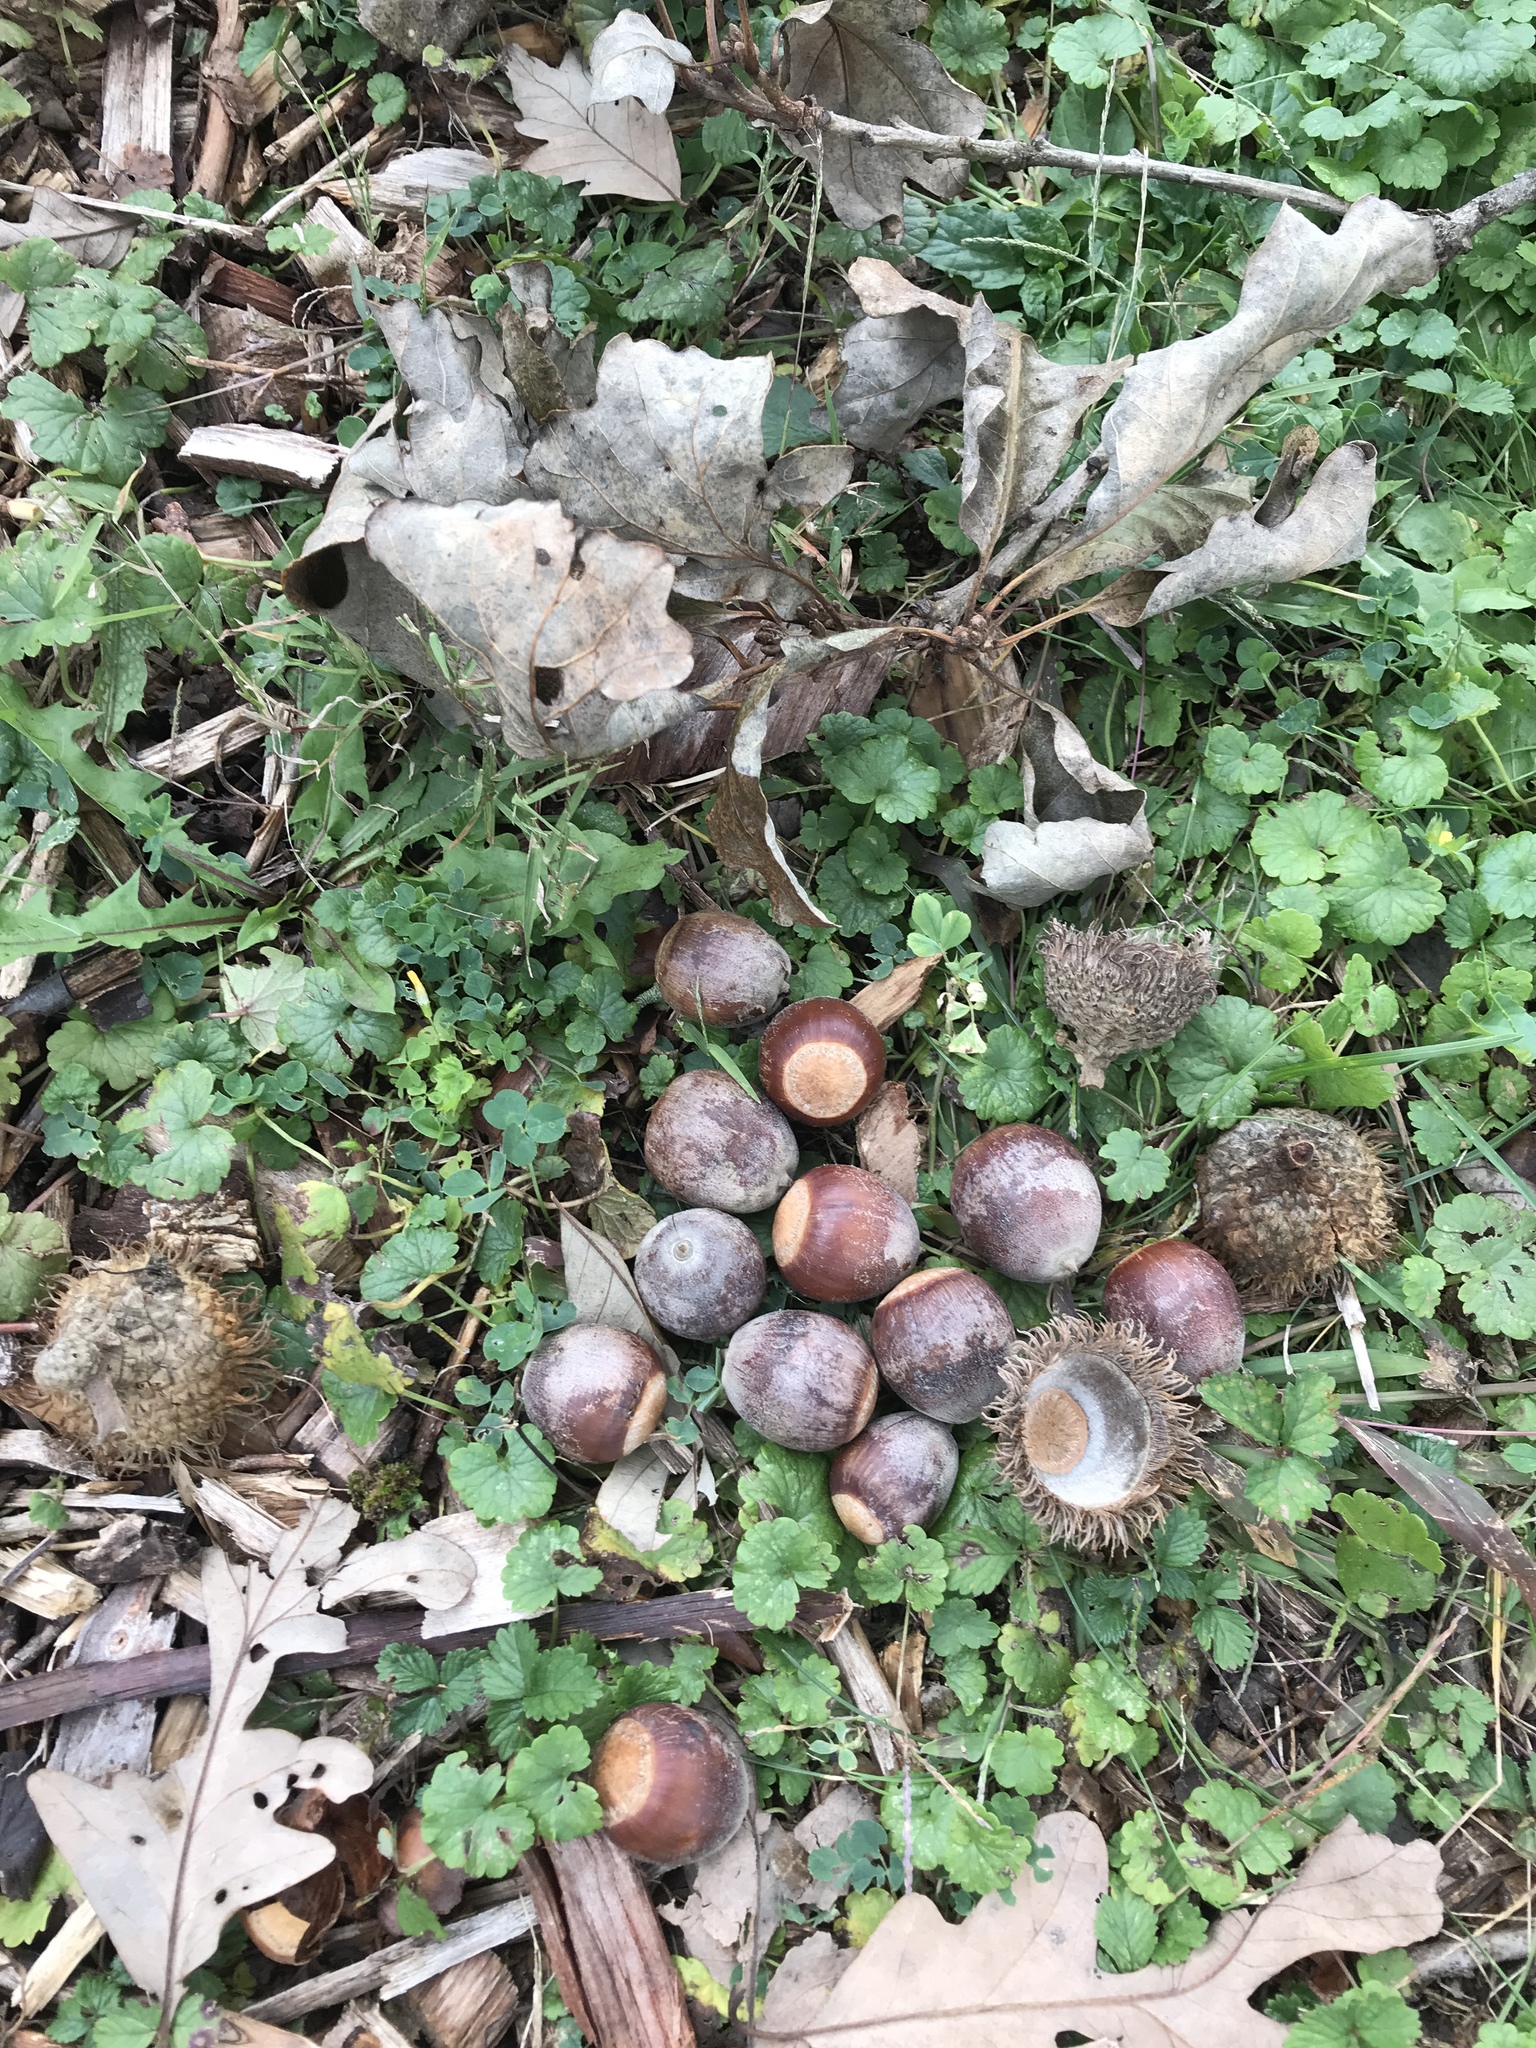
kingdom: Plantae
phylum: Tracheophyta
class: Magnoliopsida
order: Fagales
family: Fagaceae
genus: Quercus
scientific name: Quercus macrocarpa
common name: Bur oak
